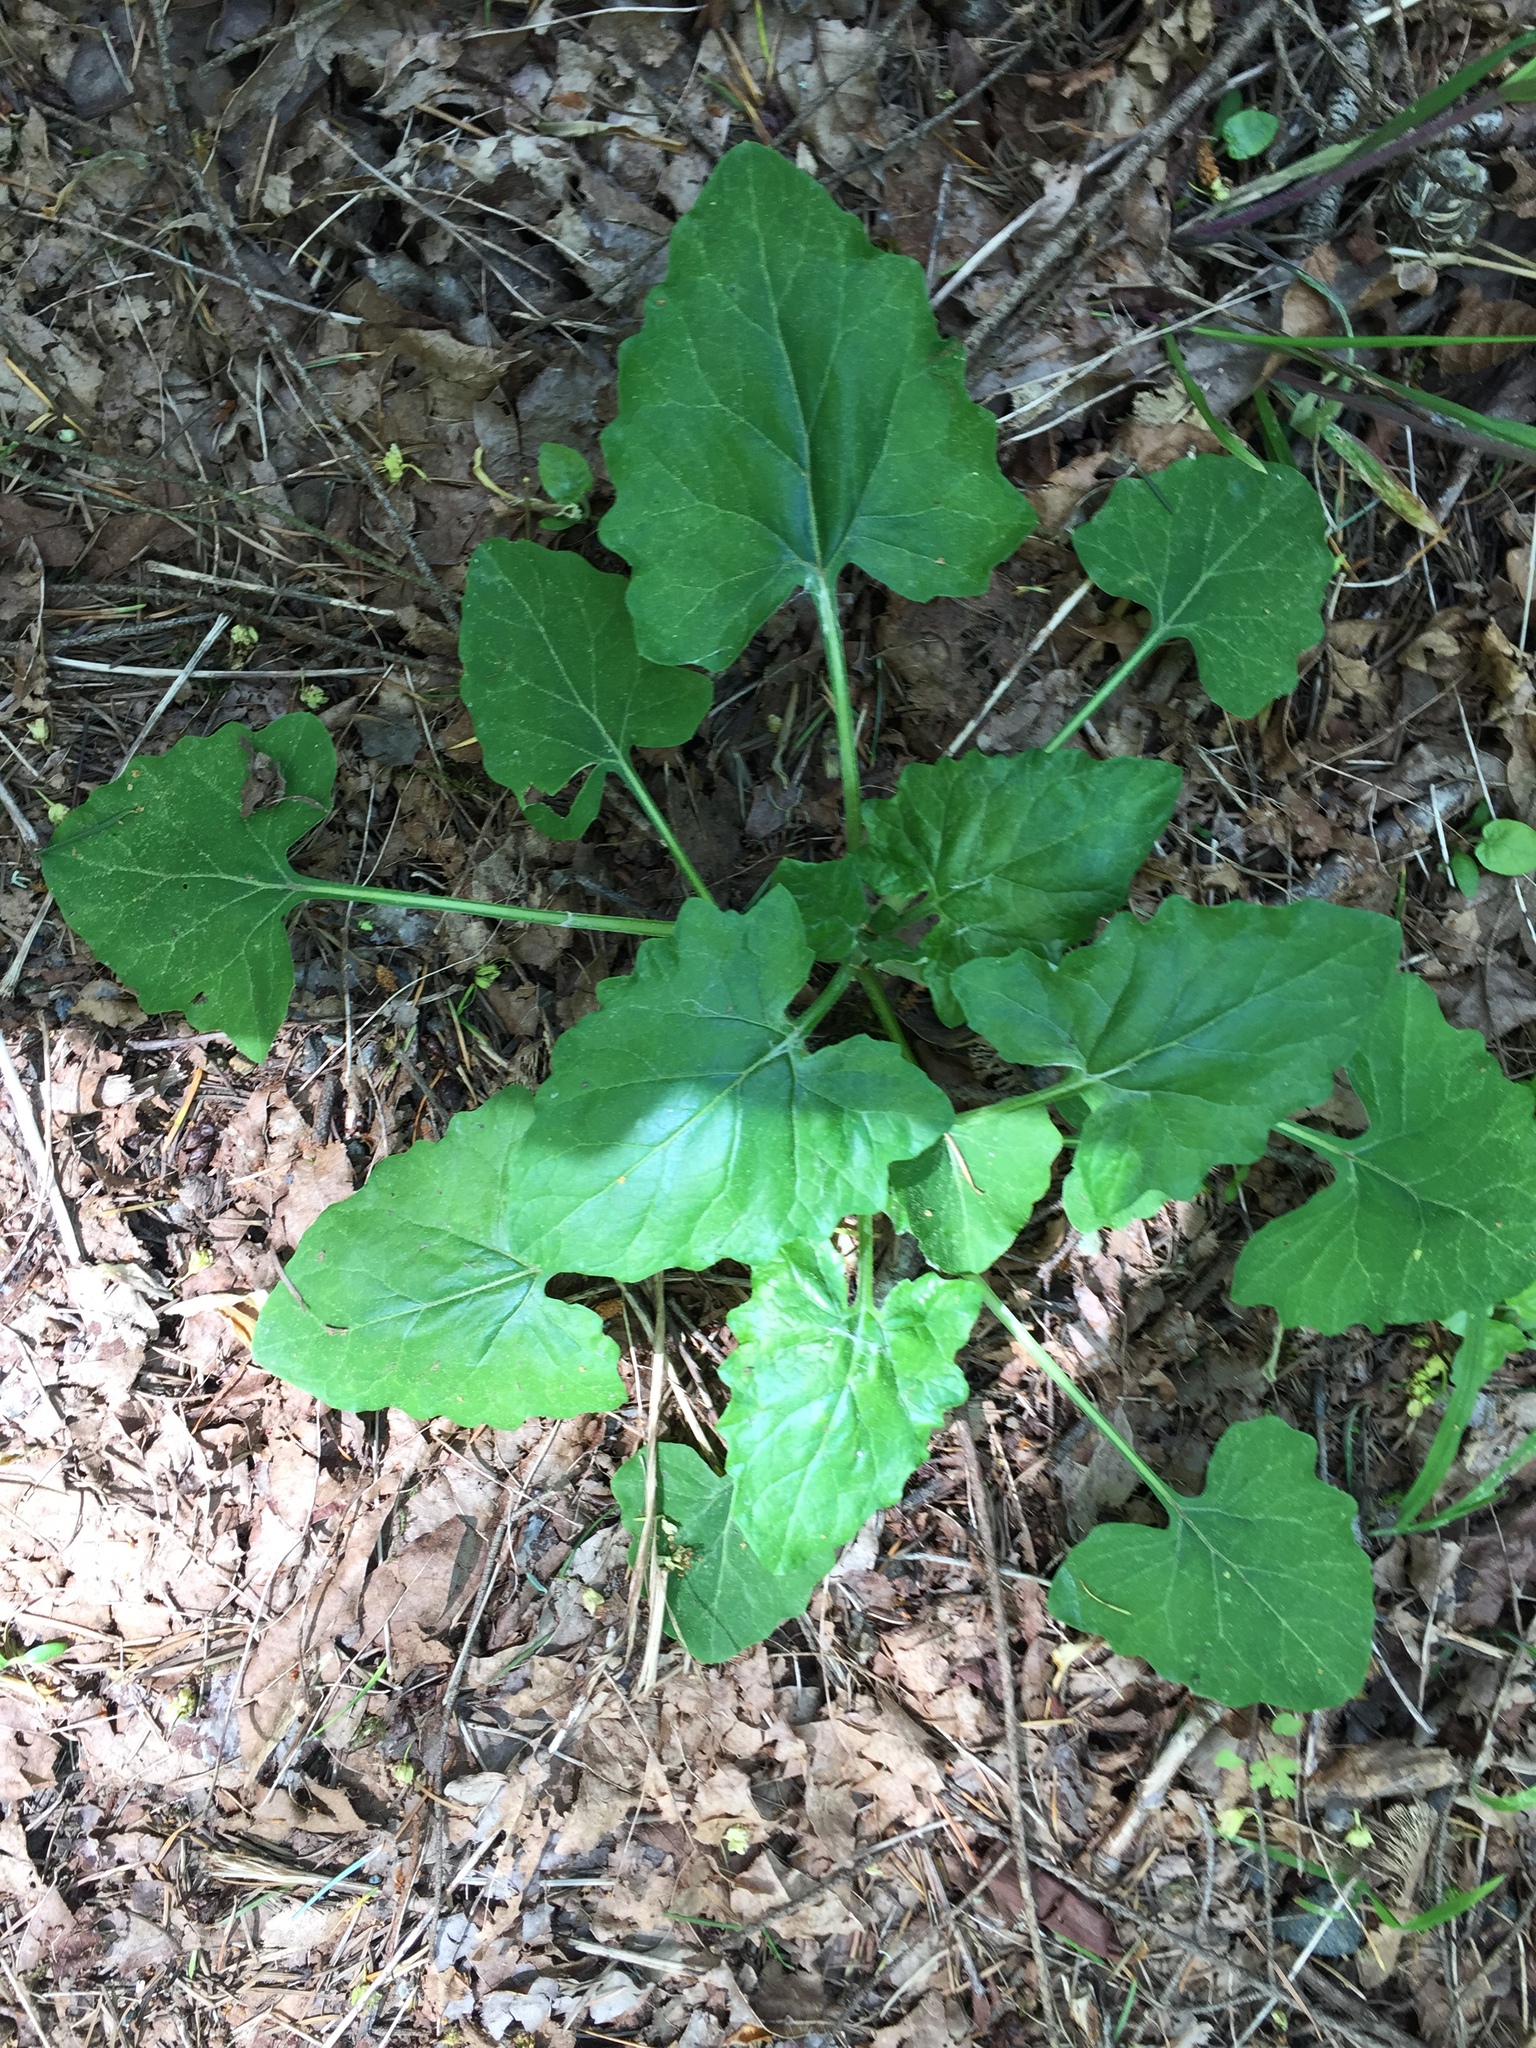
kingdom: Plantae
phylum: Tracheophyta
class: Magnoliopsida
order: Asterales
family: Asteraceae
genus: Adenocaulon
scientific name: Adenocaulon bicolor
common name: Trailplant
